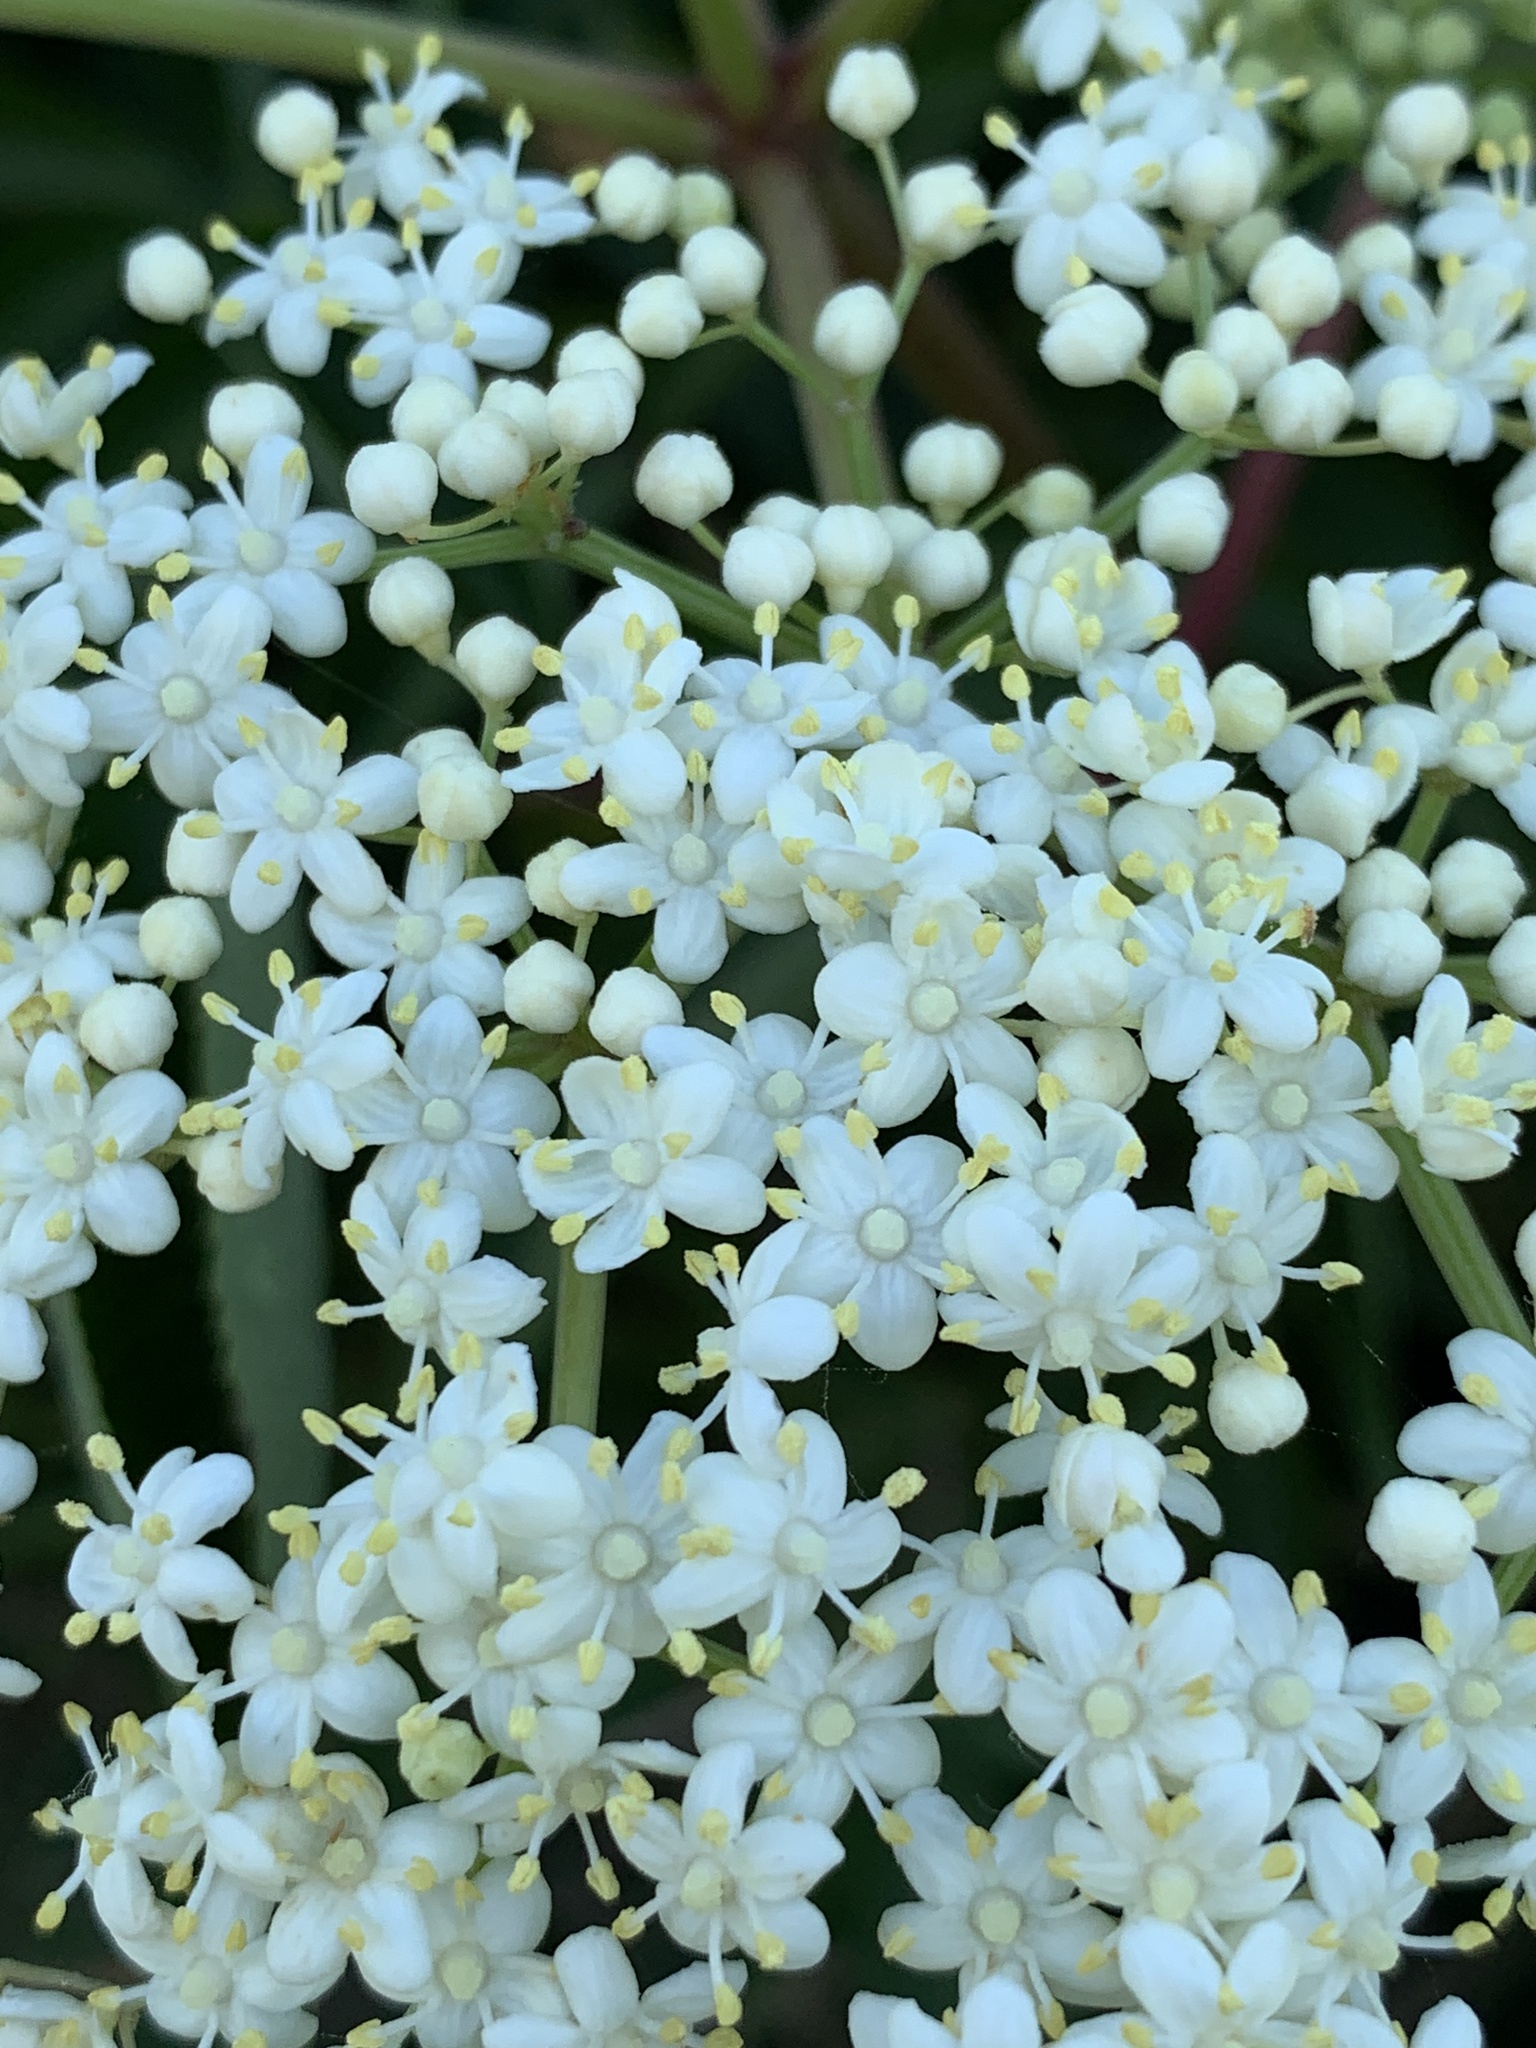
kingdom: Plantae
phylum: Tracheophyta
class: Magnoliopsida
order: Dipsacales
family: Viburnaceae
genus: Sambucus
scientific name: Sambucus canadensis
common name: American elder
